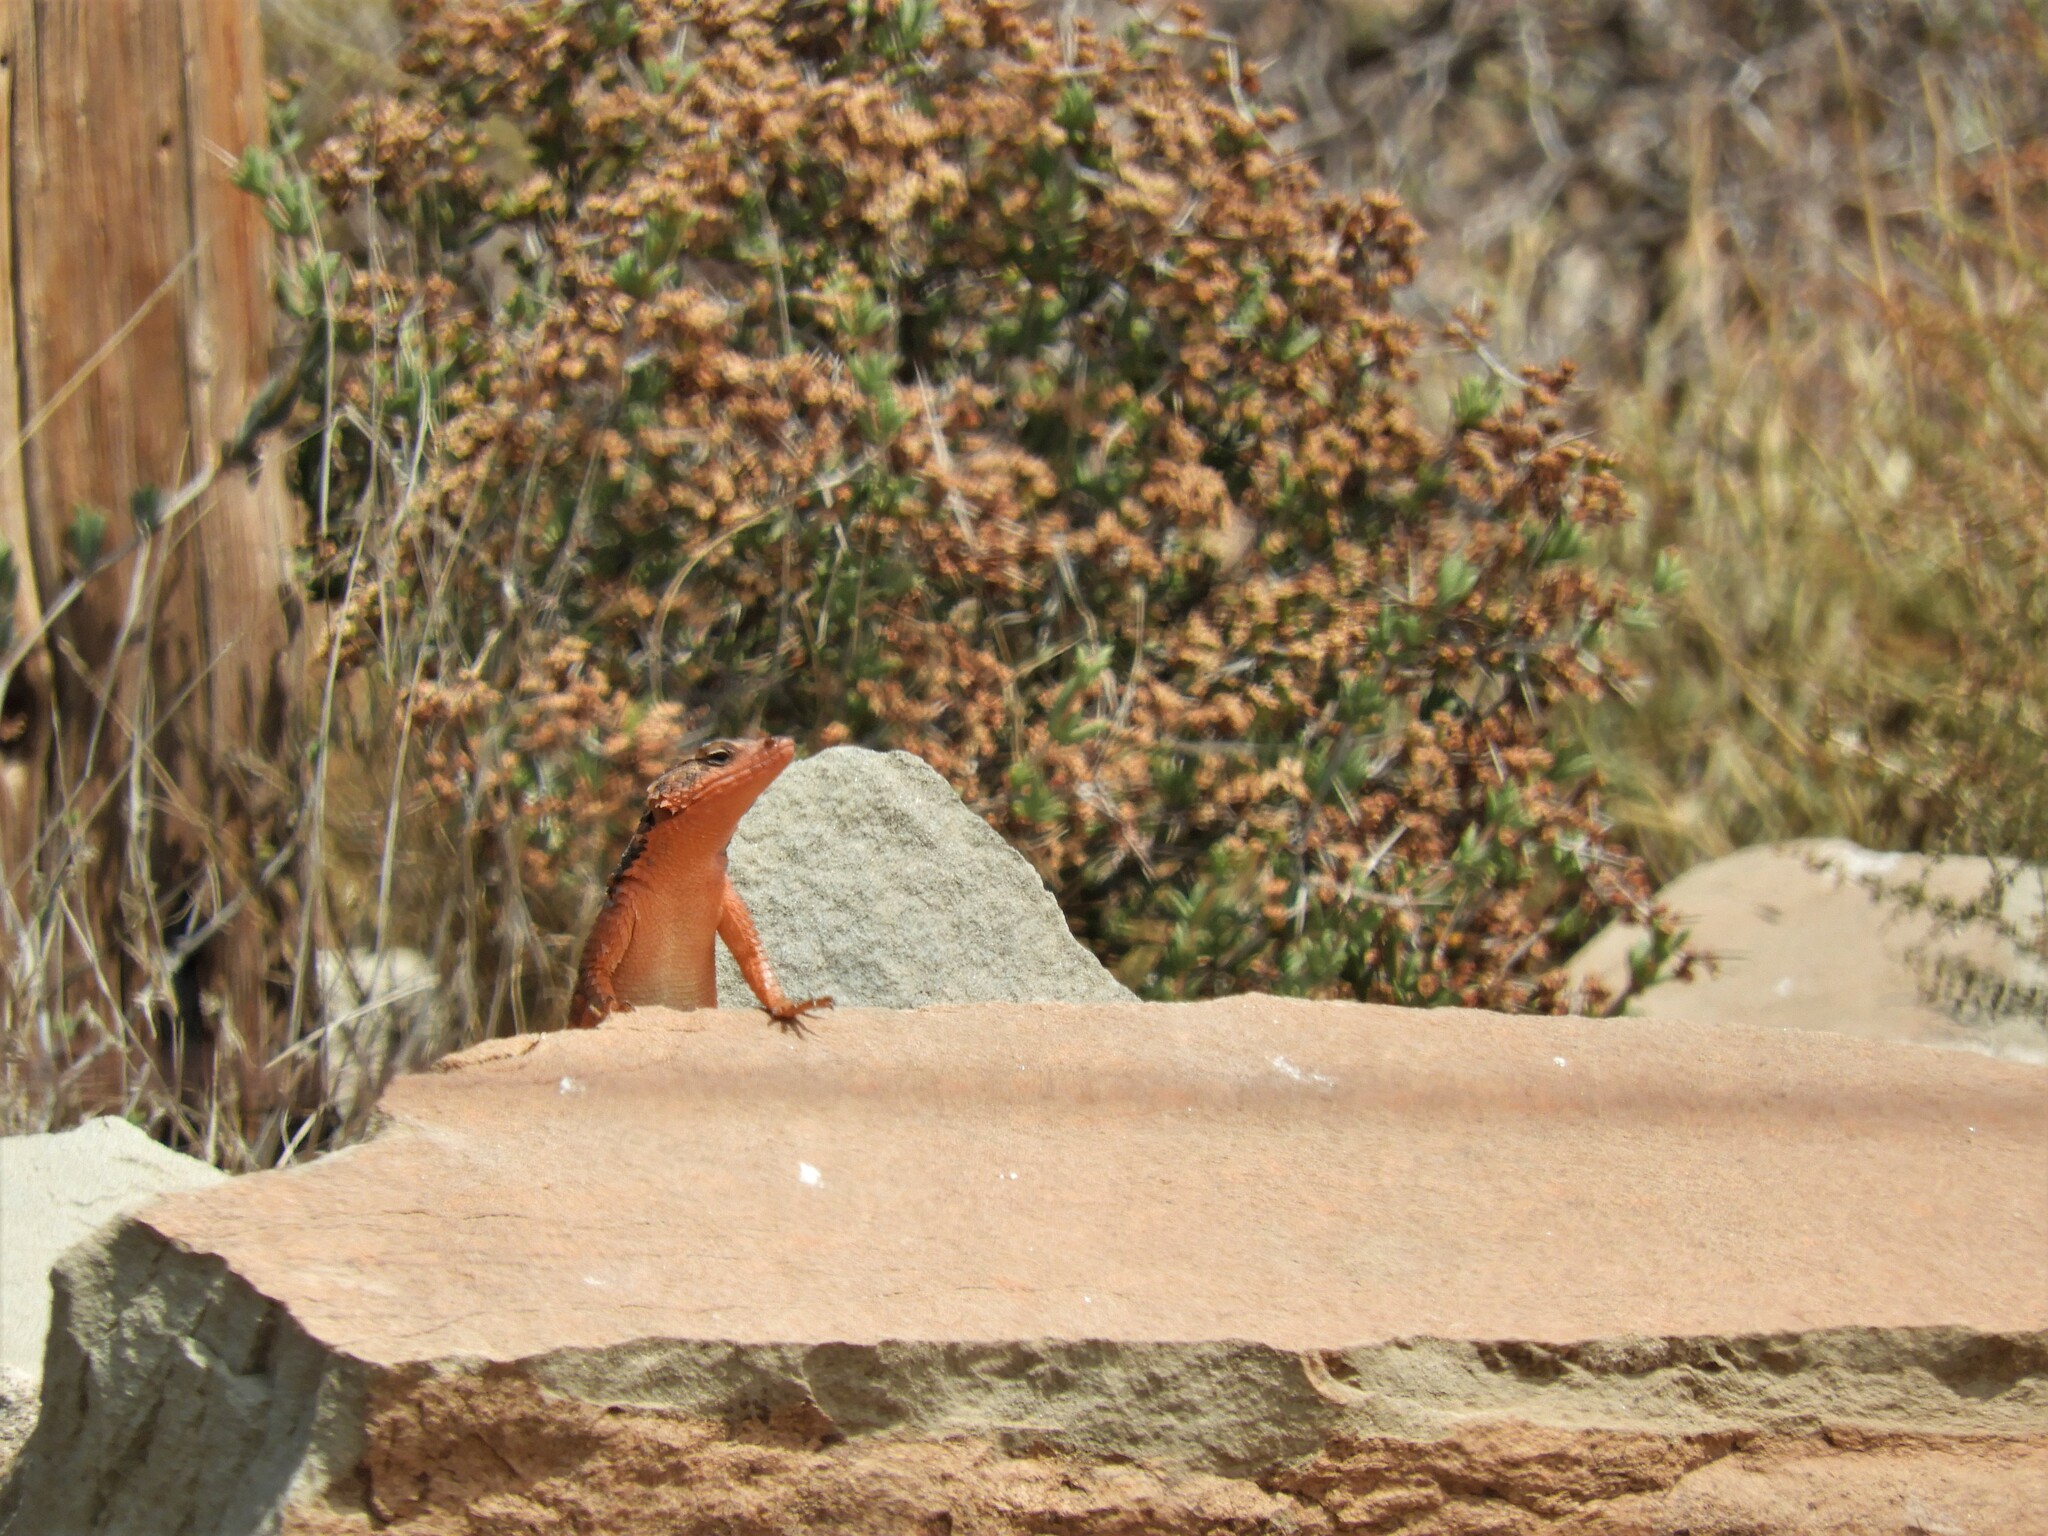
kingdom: Animalia
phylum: Chordata
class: Squamata
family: Cordylidae
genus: Karusasaurus
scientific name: Karusasaurus polyzonus
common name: Karoo girdled lizard
